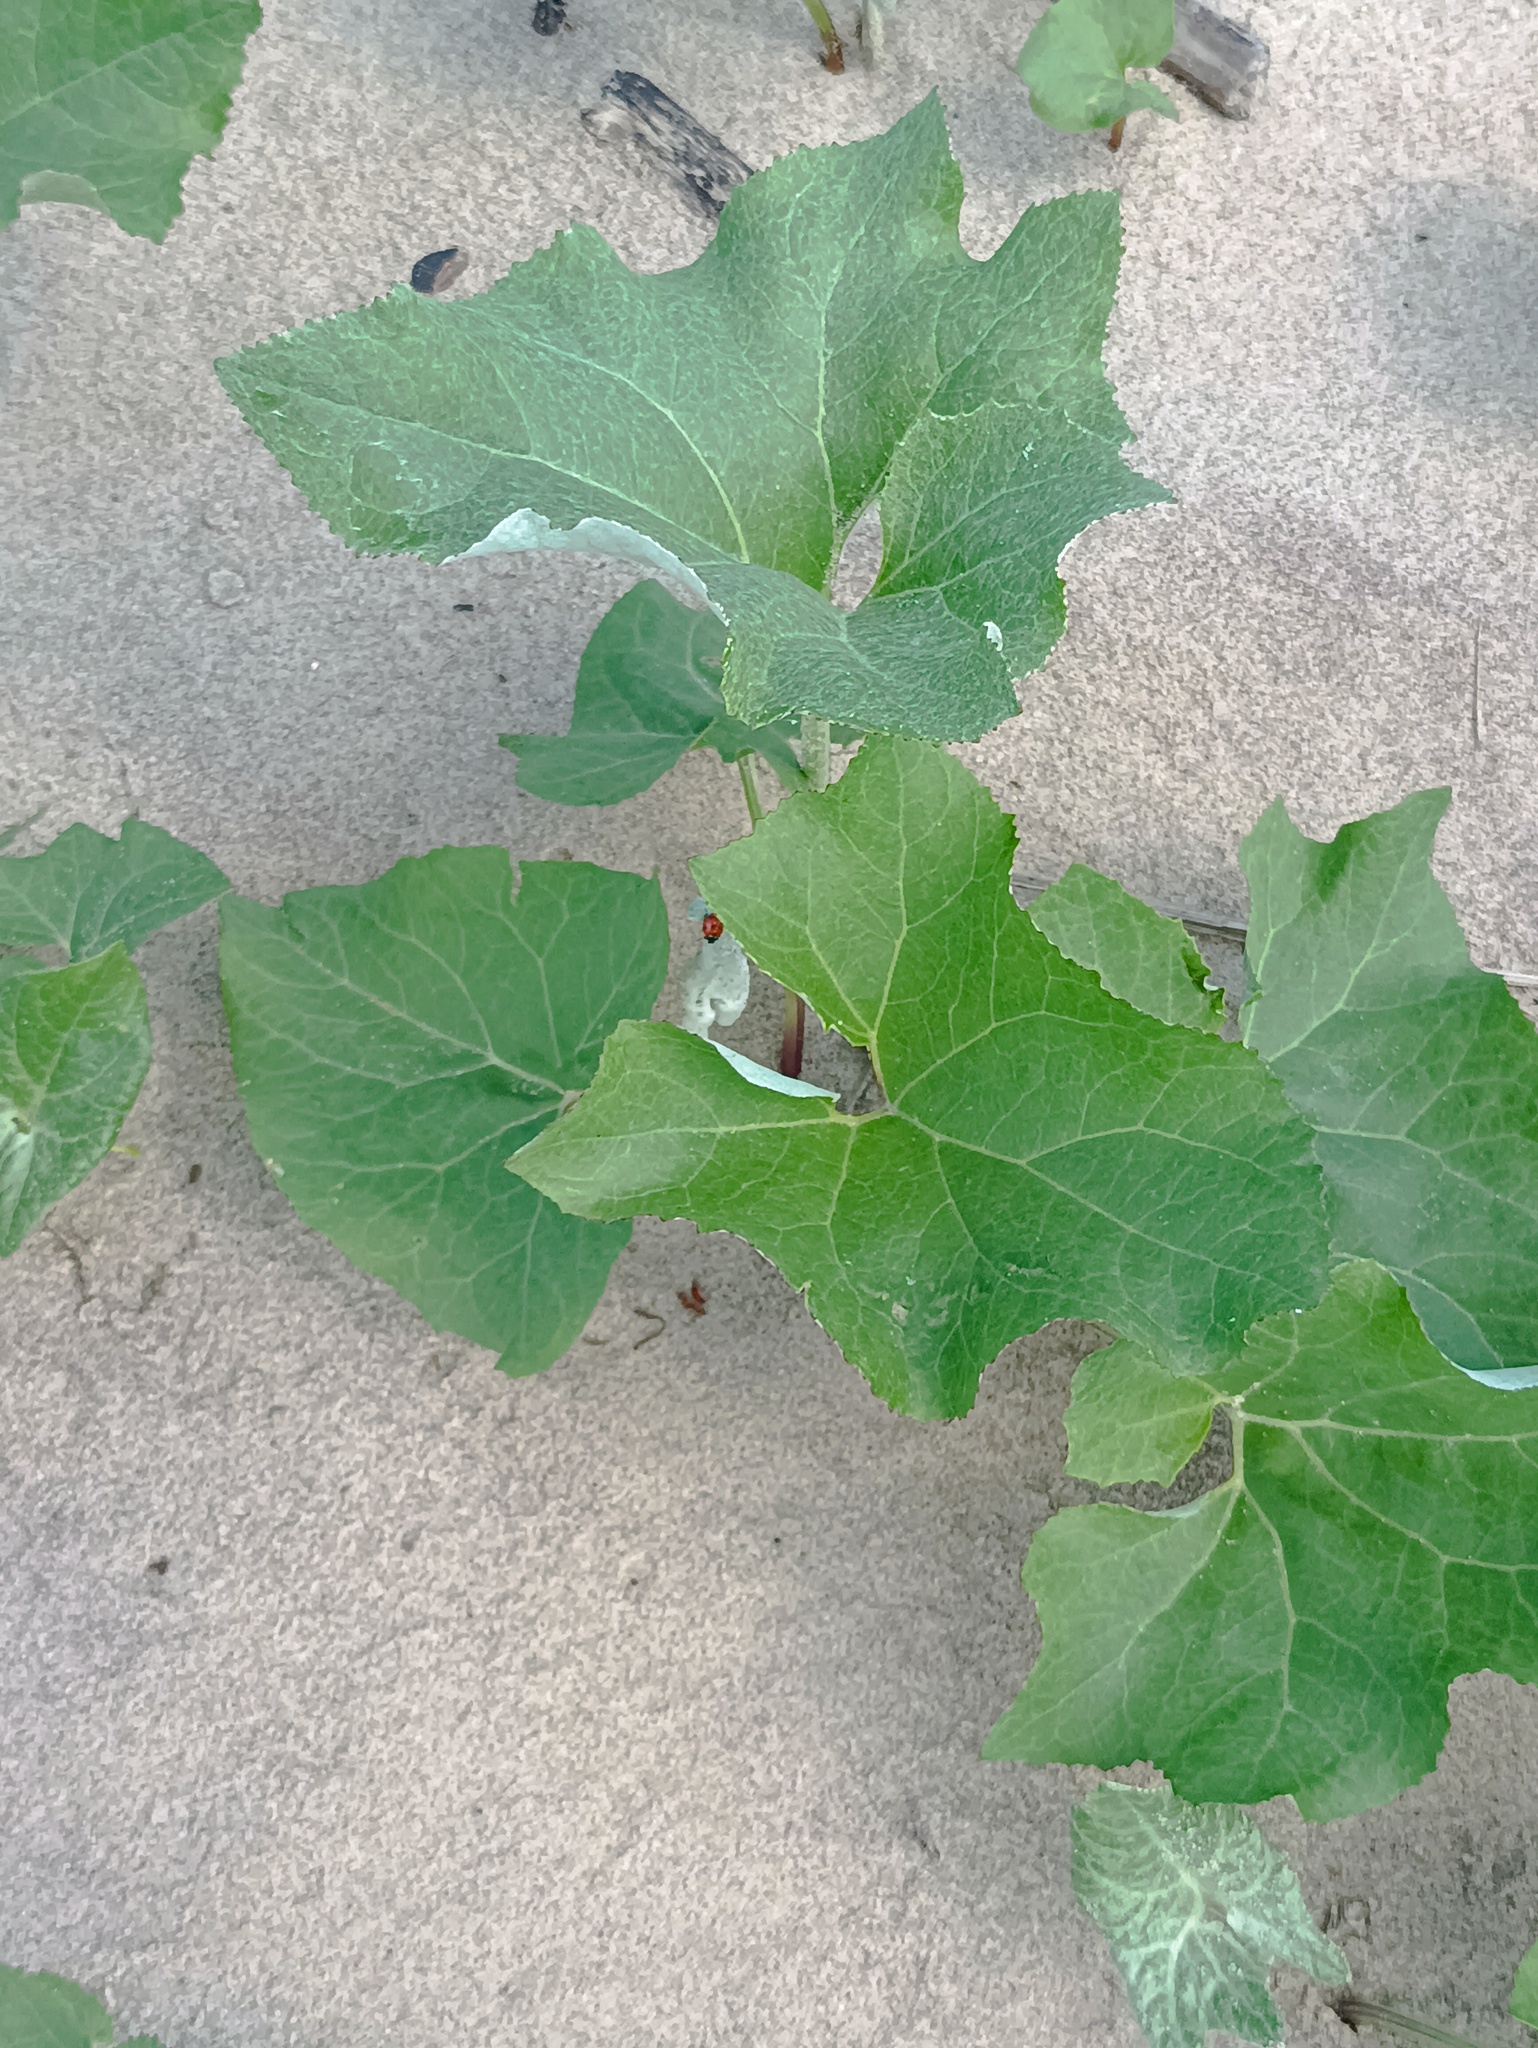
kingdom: Plantae
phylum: Tracheophyta
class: Magnoliopsida
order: Asterales
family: Asteraceae
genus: Petasites
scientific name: Petasites spurius
